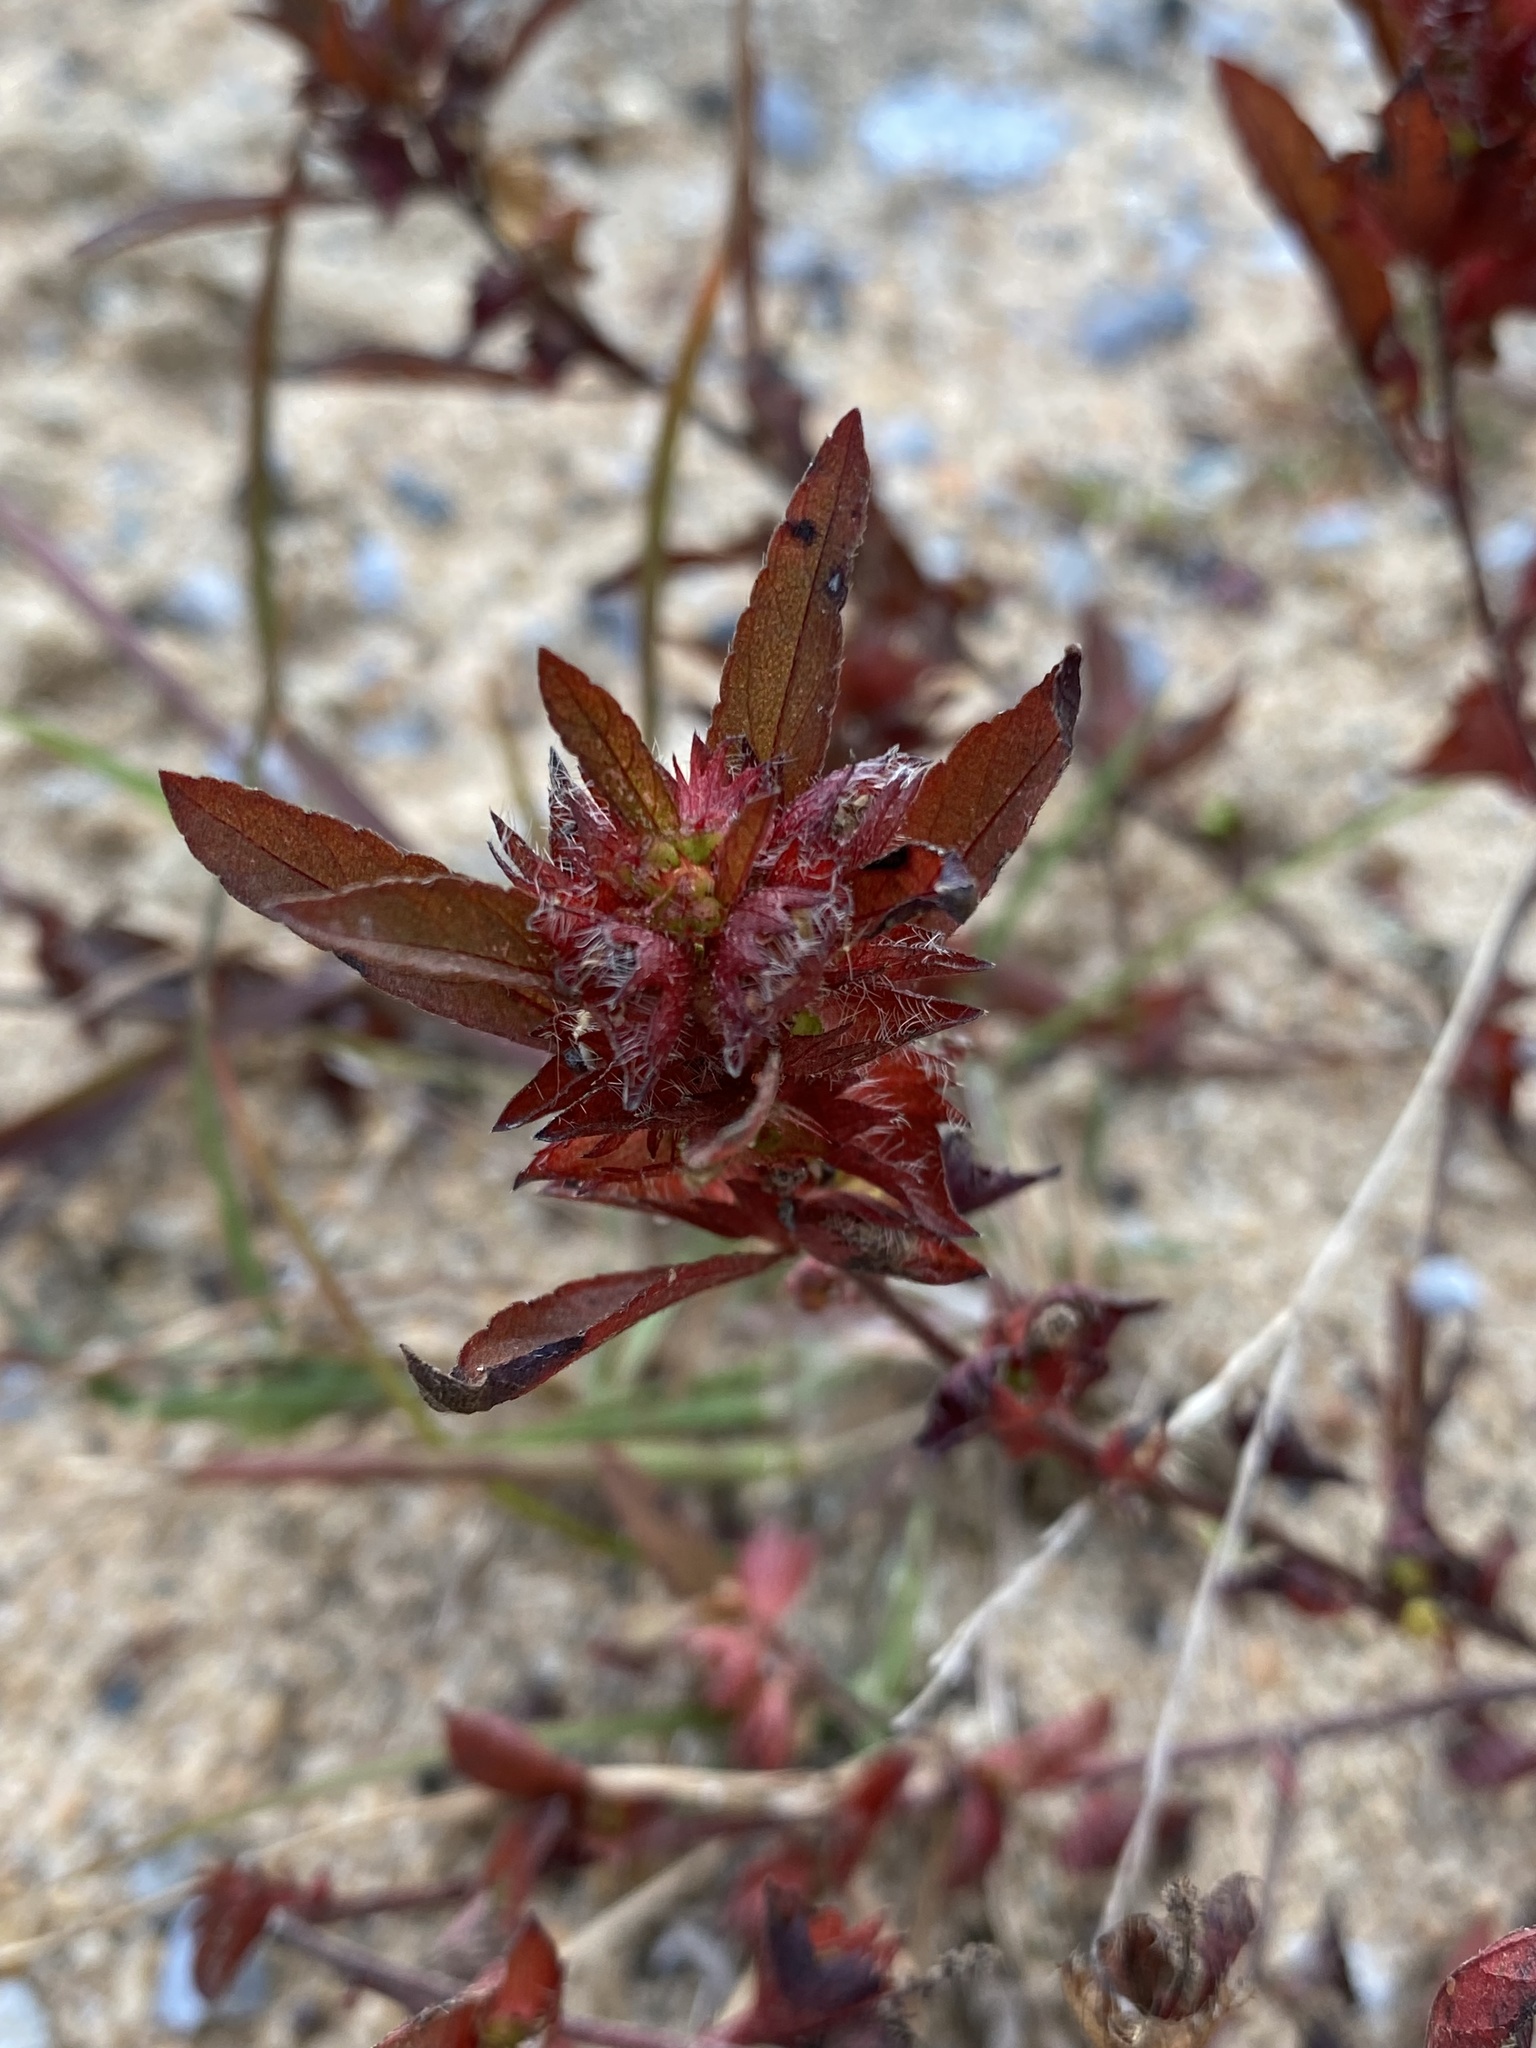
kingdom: Plantae
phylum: Tracheophyta
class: Magnoliopsida
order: Malpighiales
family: Euphorbiaceae
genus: Acalypha
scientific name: Acalypha gracilens
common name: Slender three-seeded mercury
